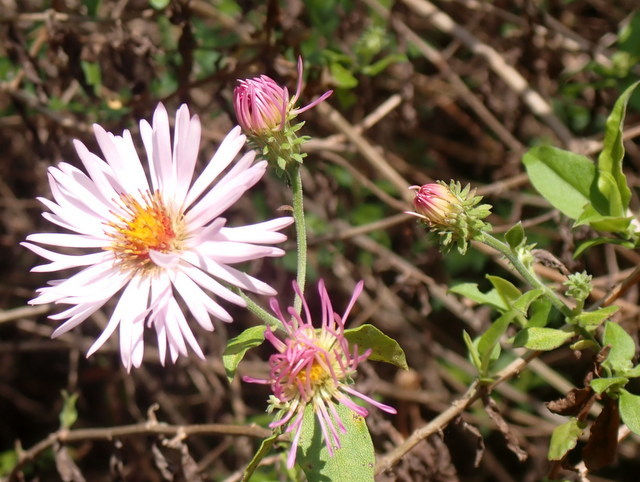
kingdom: Plantae
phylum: Tracheophyta
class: Magnoliopsida
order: Asterales
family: Asteraceae
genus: Ampelaster
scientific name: Ampelaster carolinianus
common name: Climbing aster
